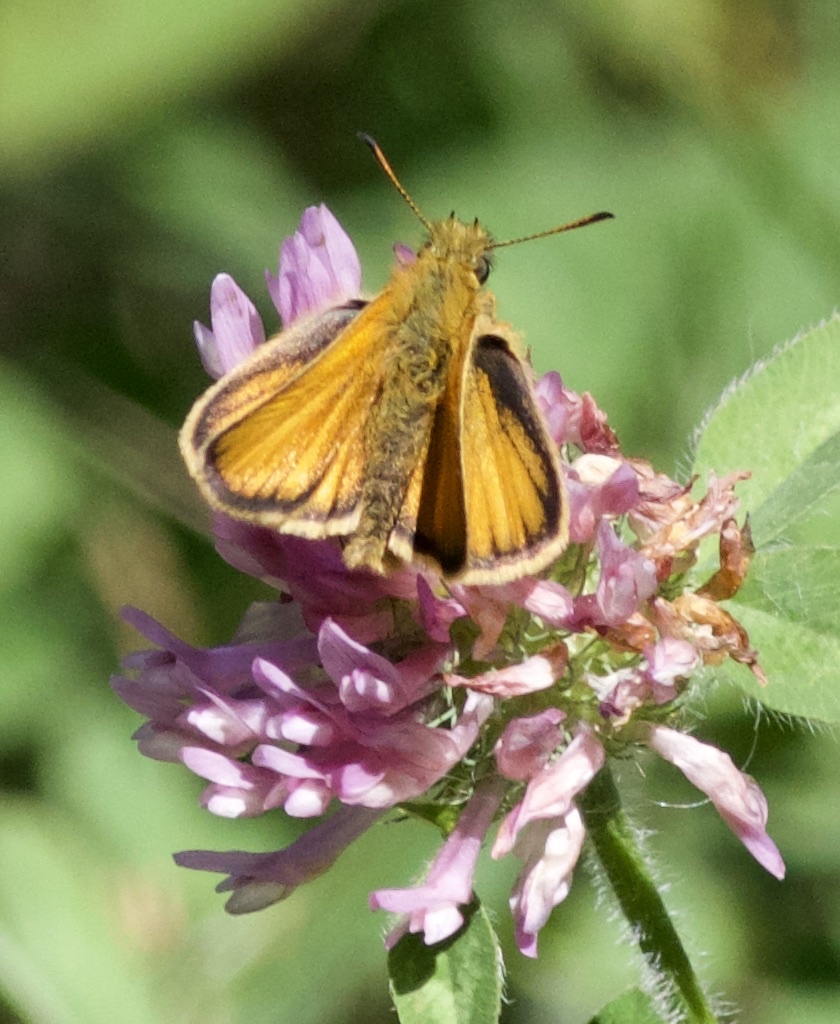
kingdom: Animalia
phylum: Arthropoda
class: Insecta
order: Lepidoptera
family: Hesperiidae
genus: Thymelicus
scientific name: Thymelicus lineola
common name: Essex skipper
